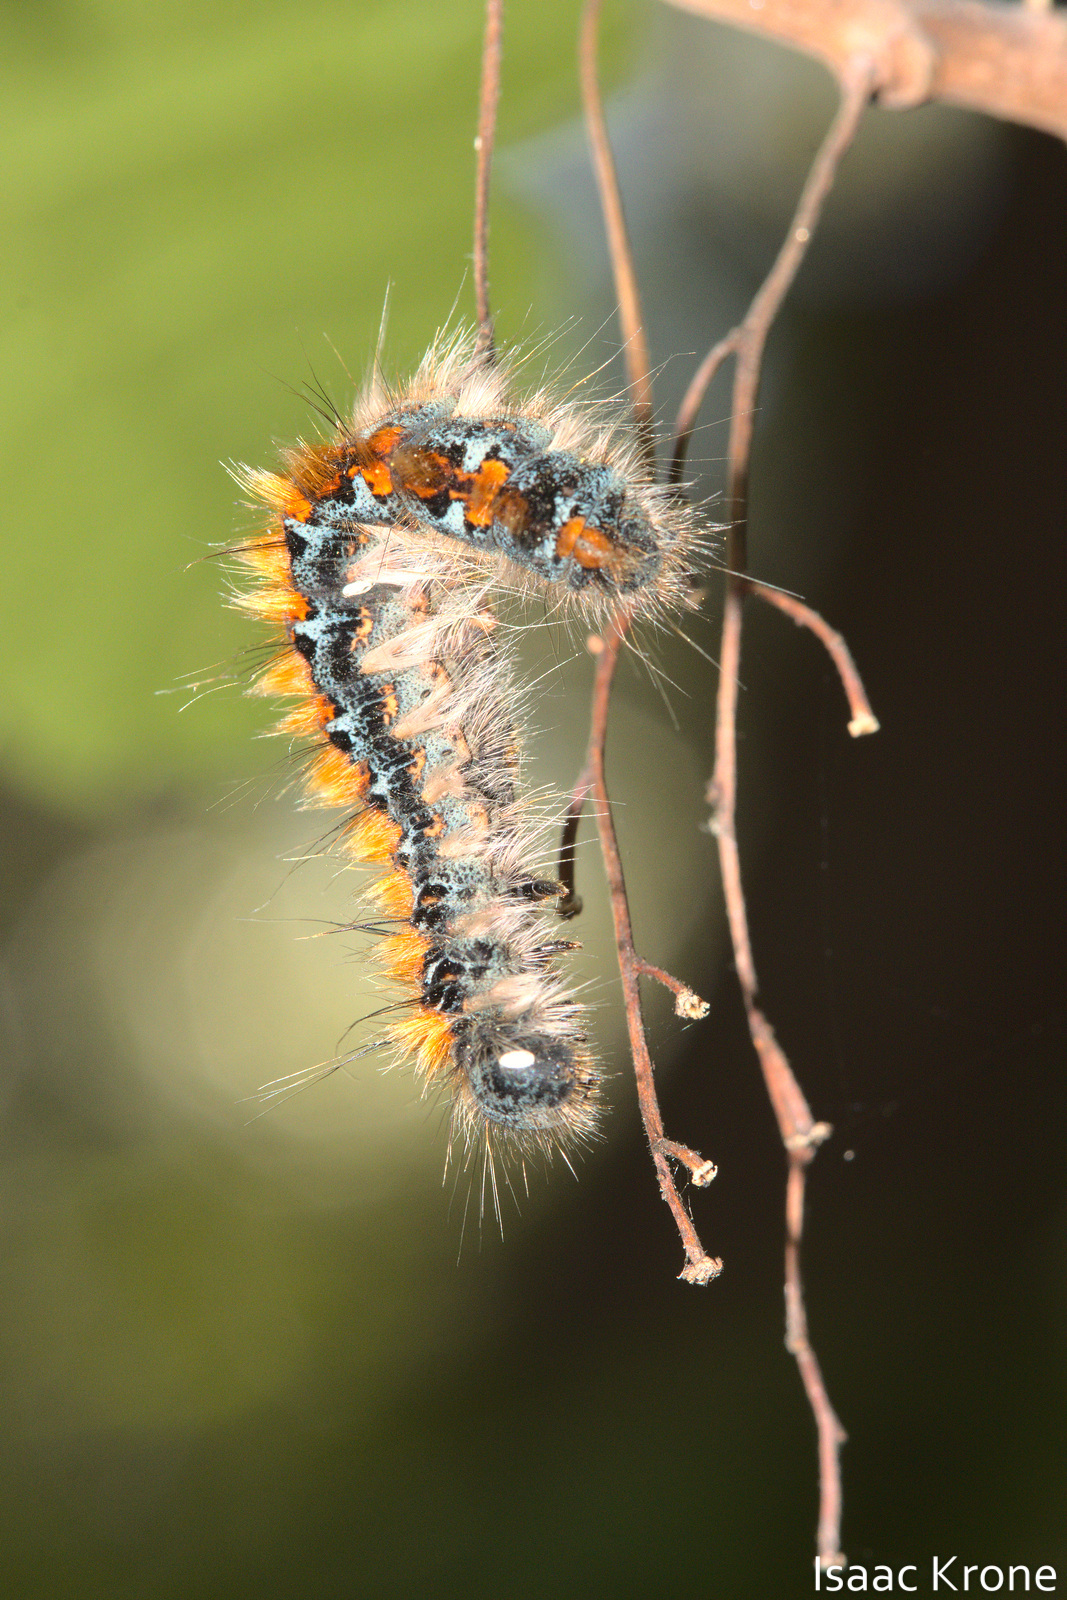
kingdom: Animalia
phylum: Arthropoda
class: Insecta
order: Lepidoptera
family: Lasiocampidae
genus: Malacosoma
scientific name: Malacosoma constricta
